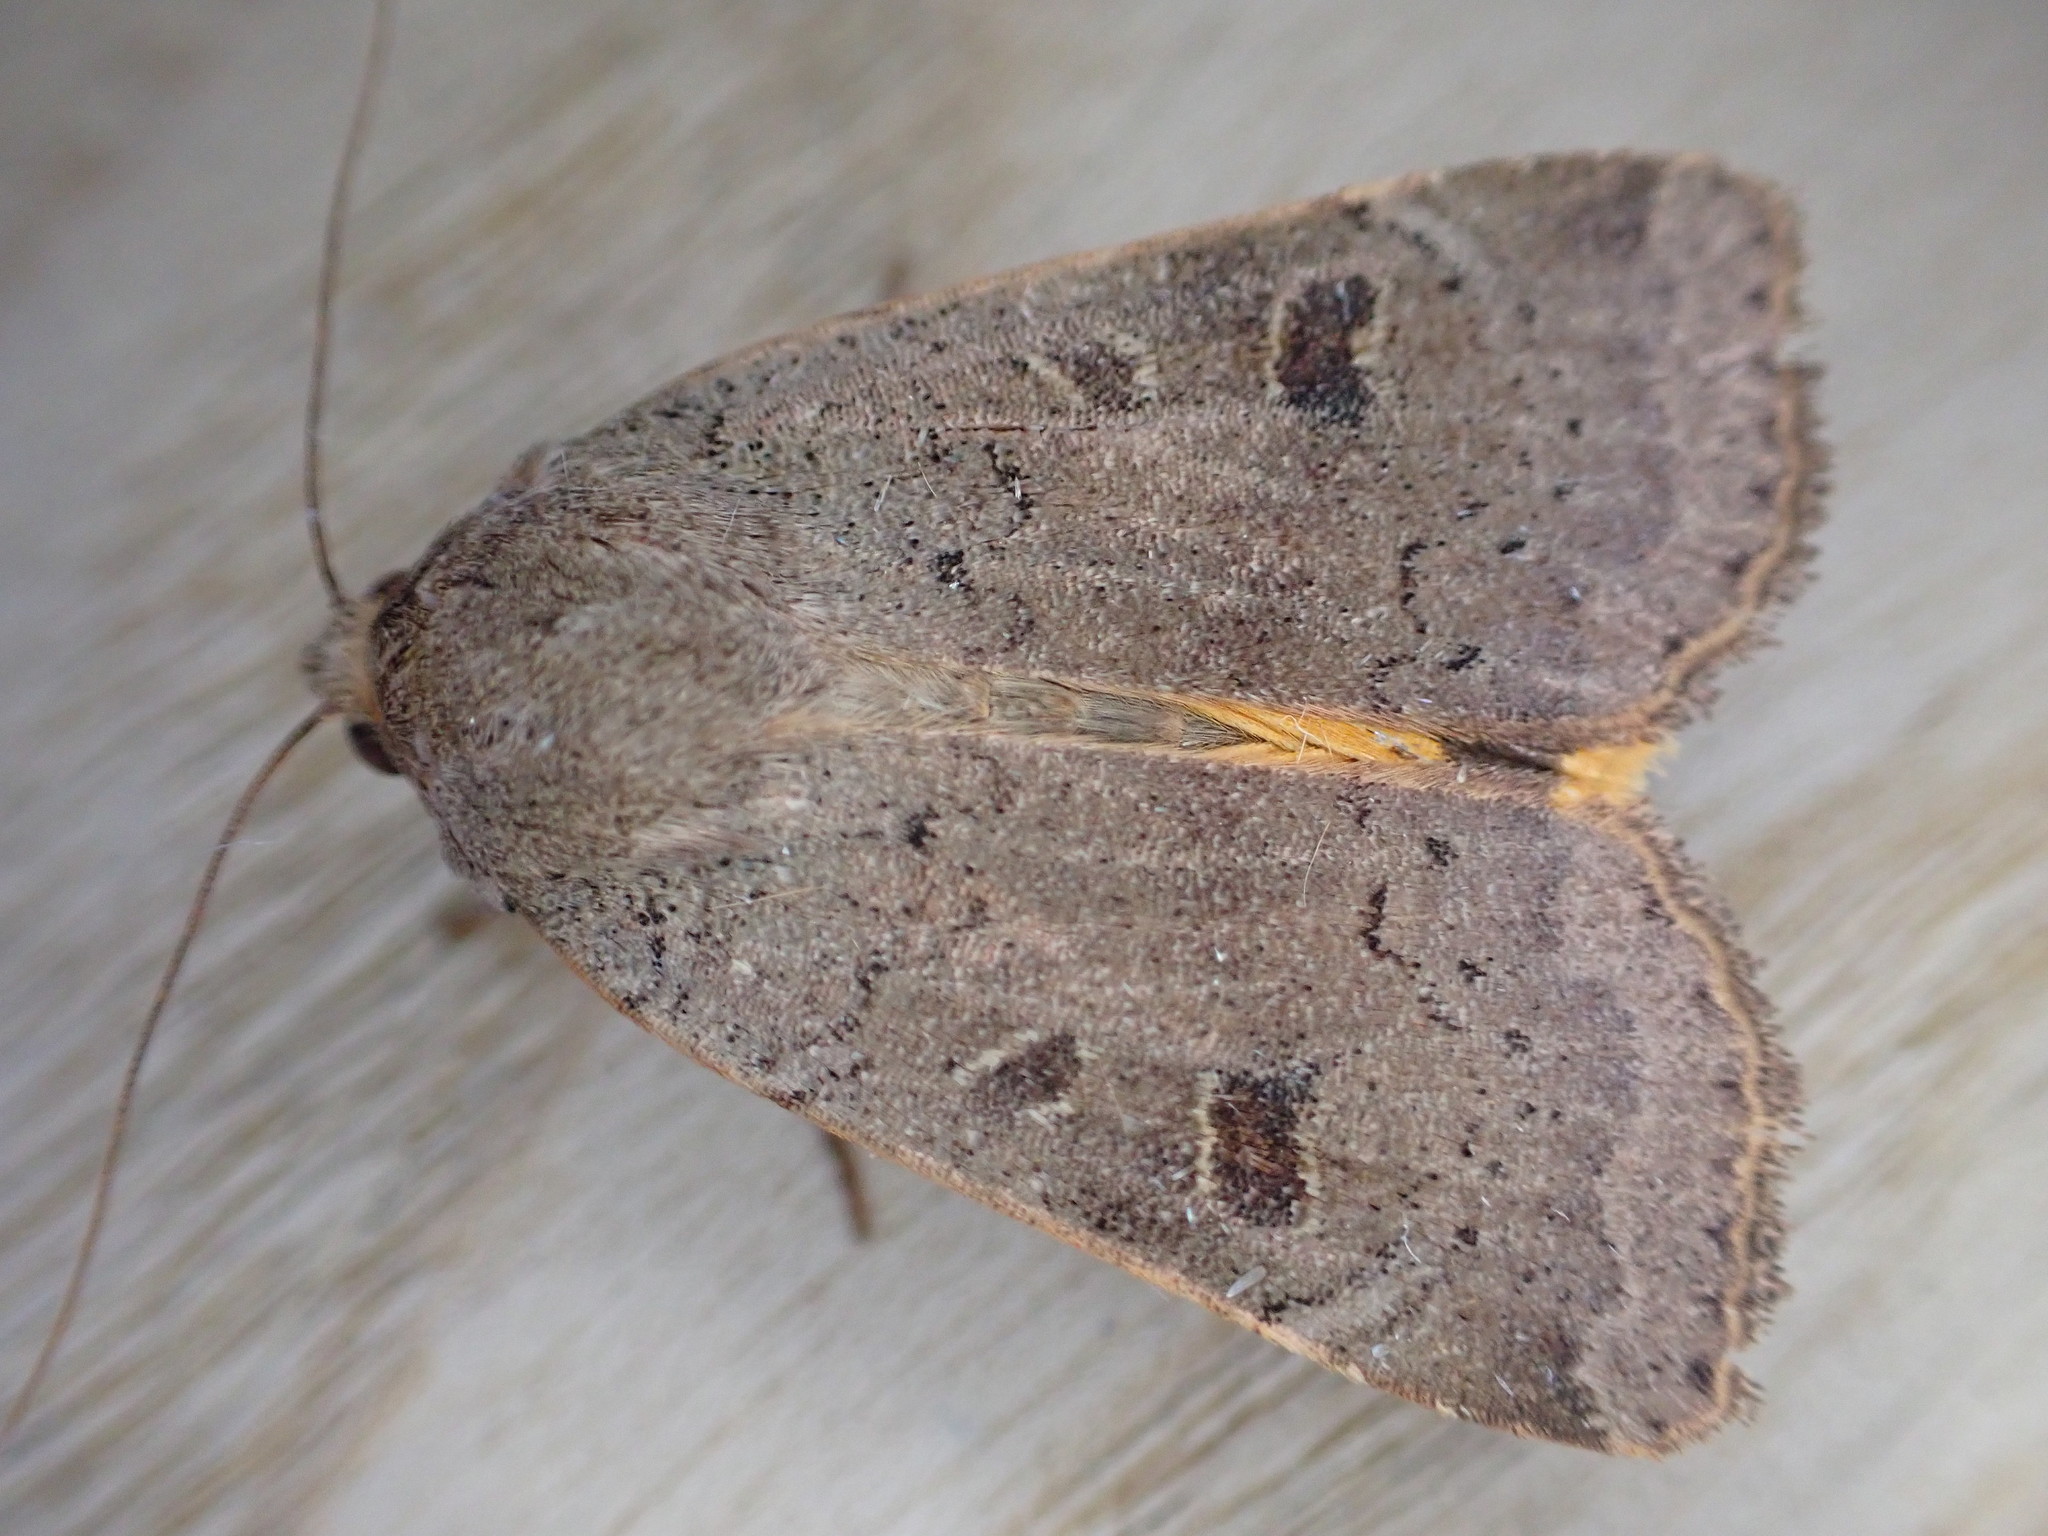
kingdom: Animalia
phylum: Arthropoda
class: Insecta
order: Lepidoptera
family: Noctuidae
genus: Noctua
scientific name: Noctua comes
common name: Lesser yellow underwing
